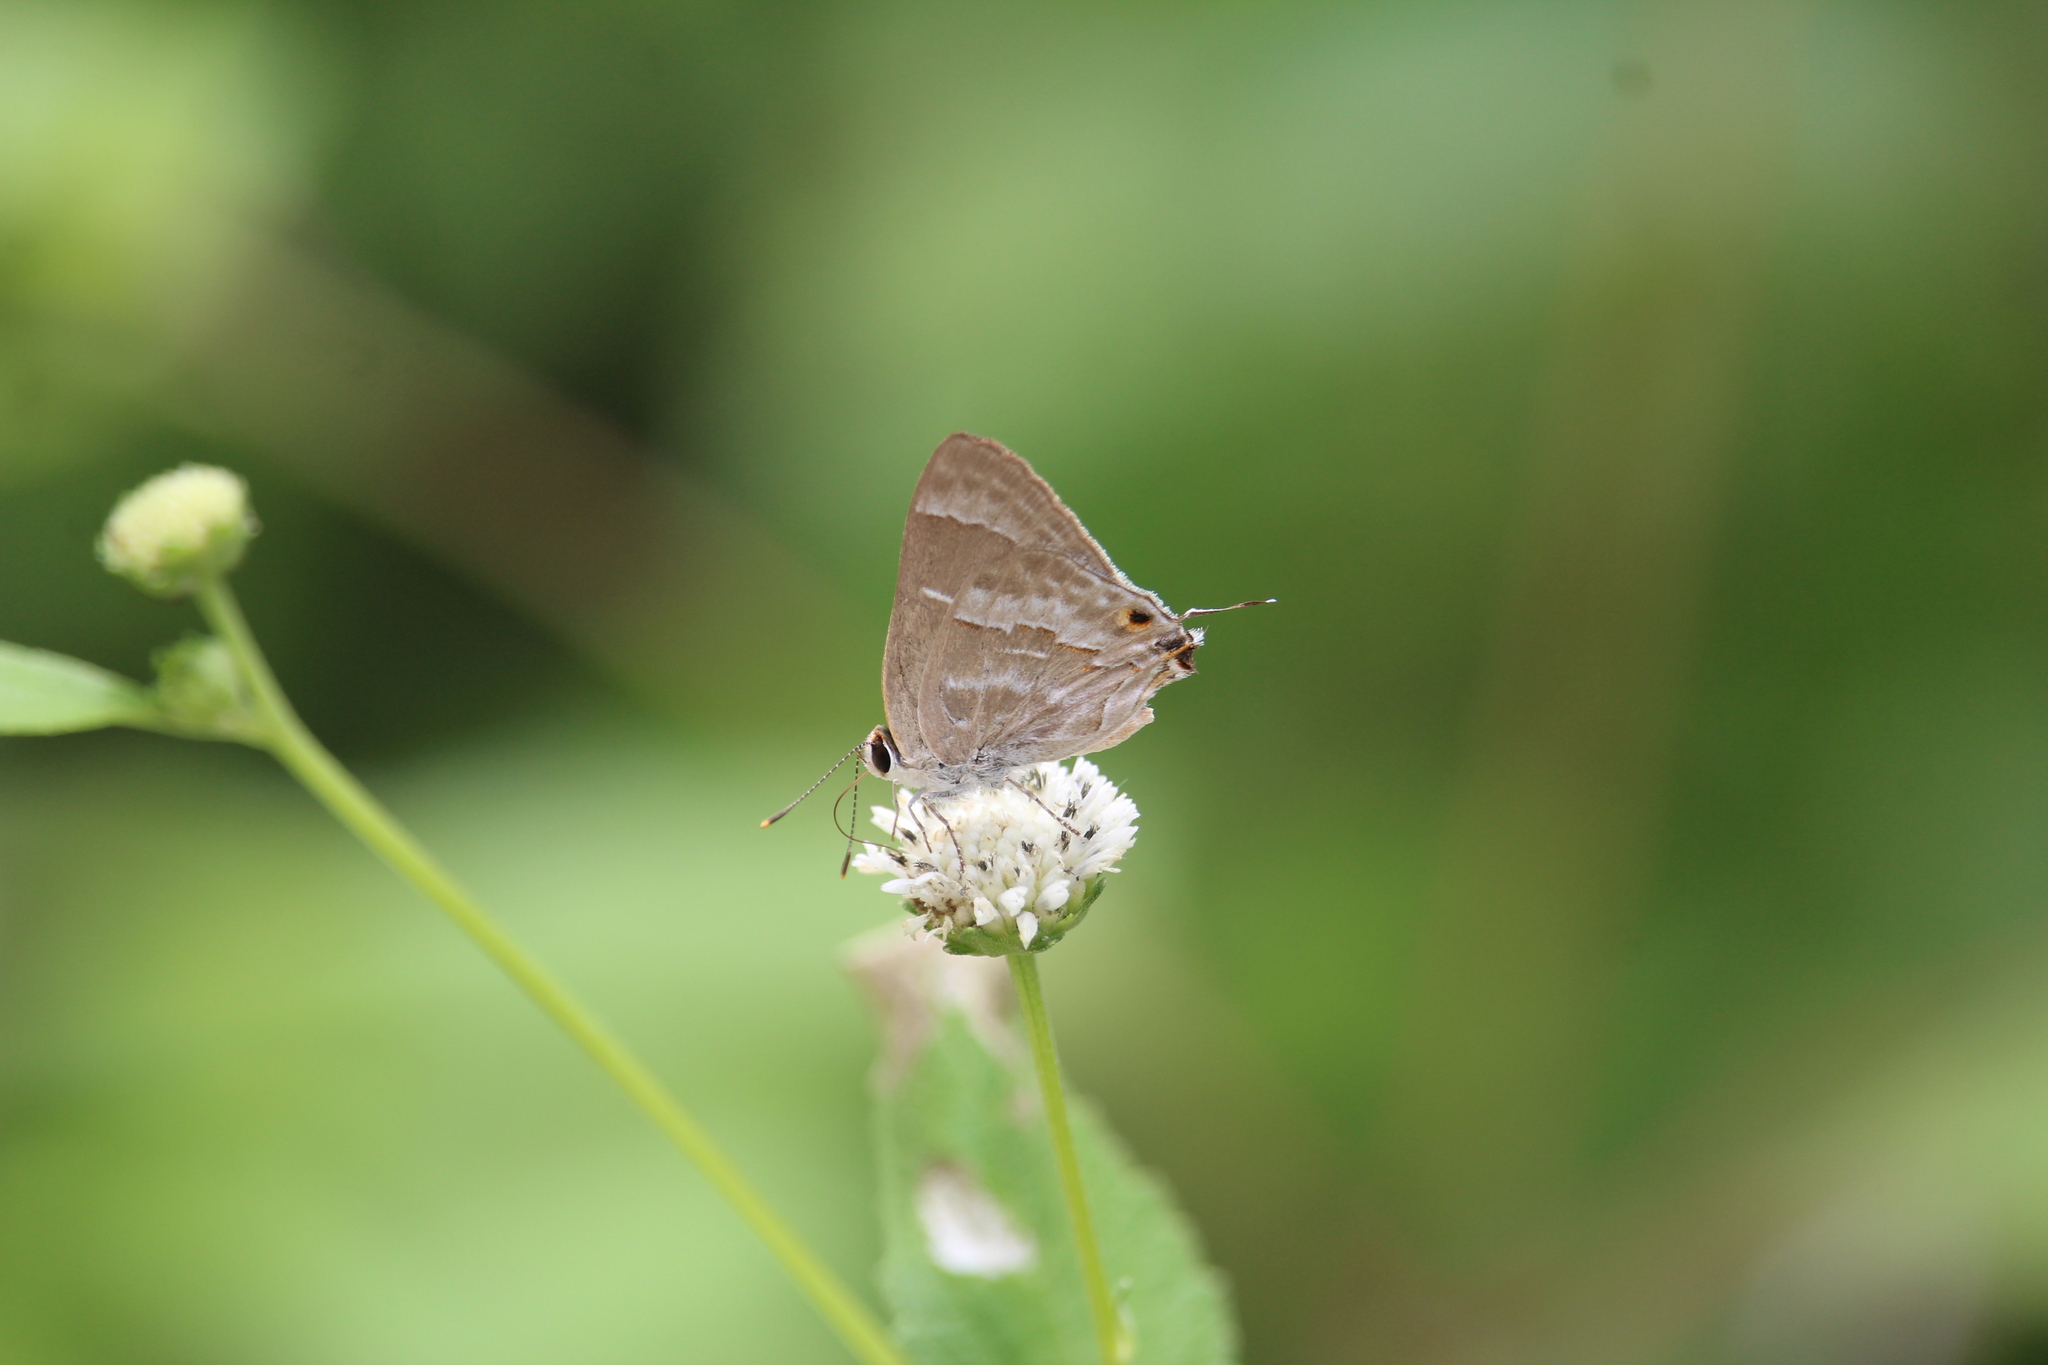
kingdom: Animalia
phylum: Arthropoda
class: Insecta
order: Lepidoptera
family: Lycaenidae
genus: Thecla
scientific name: Thecla yojoa
